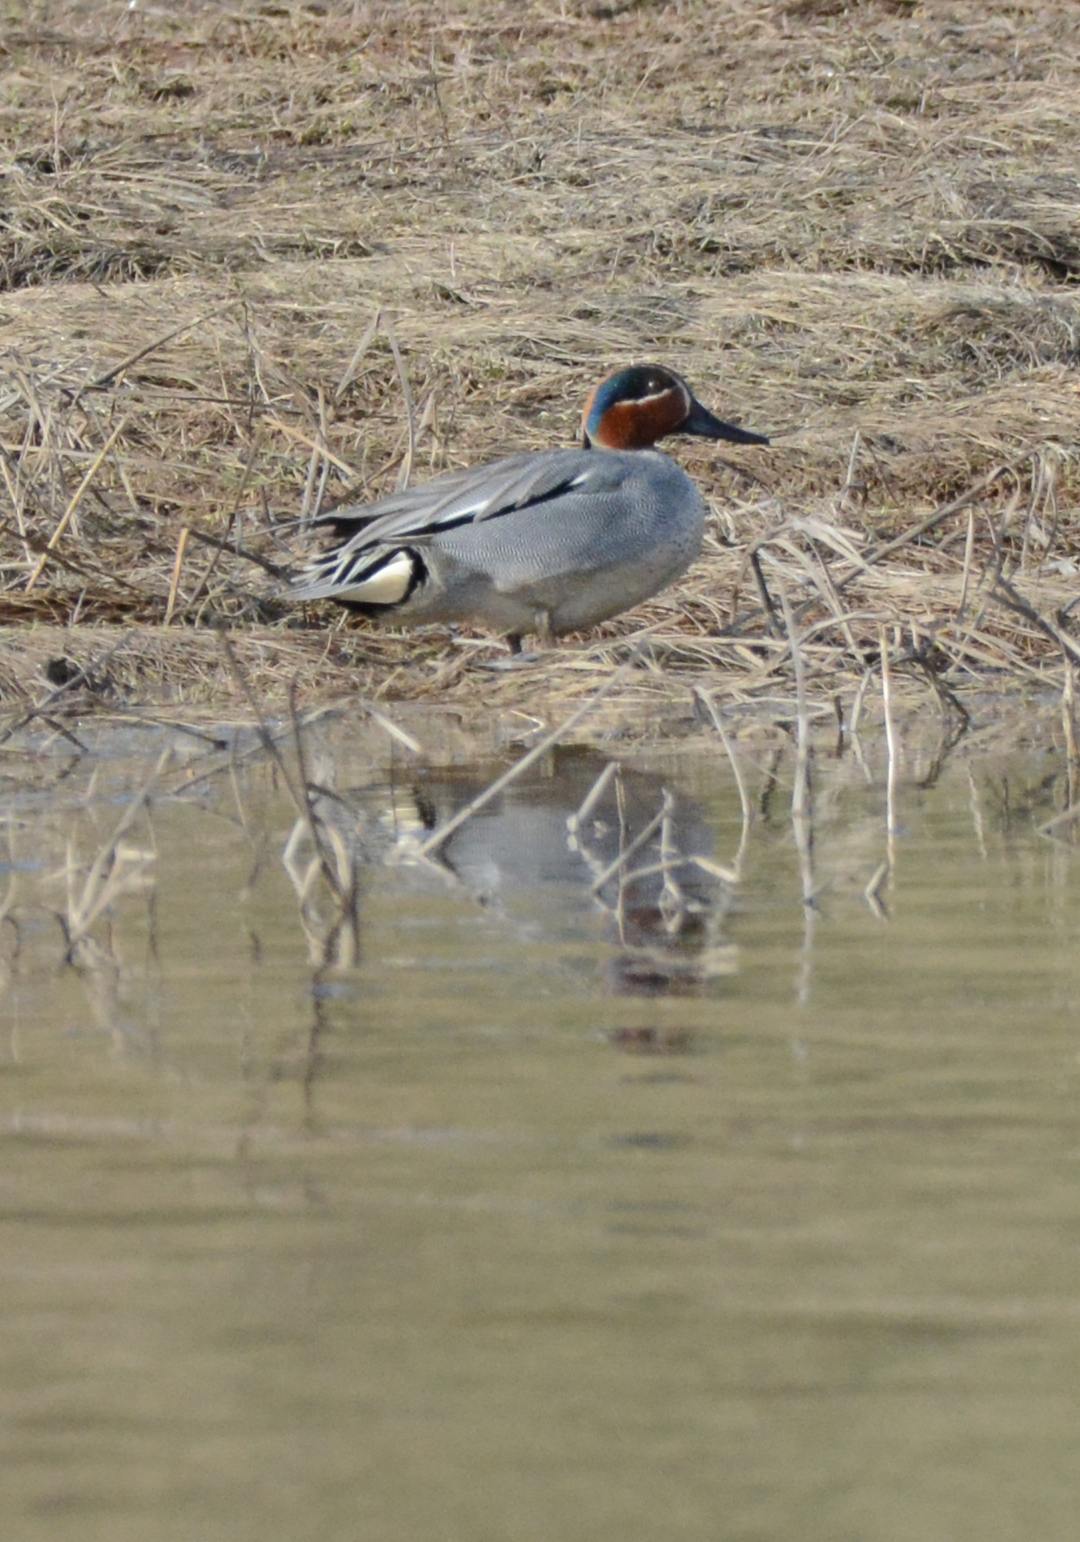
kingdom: Animalia
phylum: Chordata
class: Aves
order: Anseriformes
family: Anatidae
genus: Anas
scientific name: Anas crecca
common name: Eurasian teal
